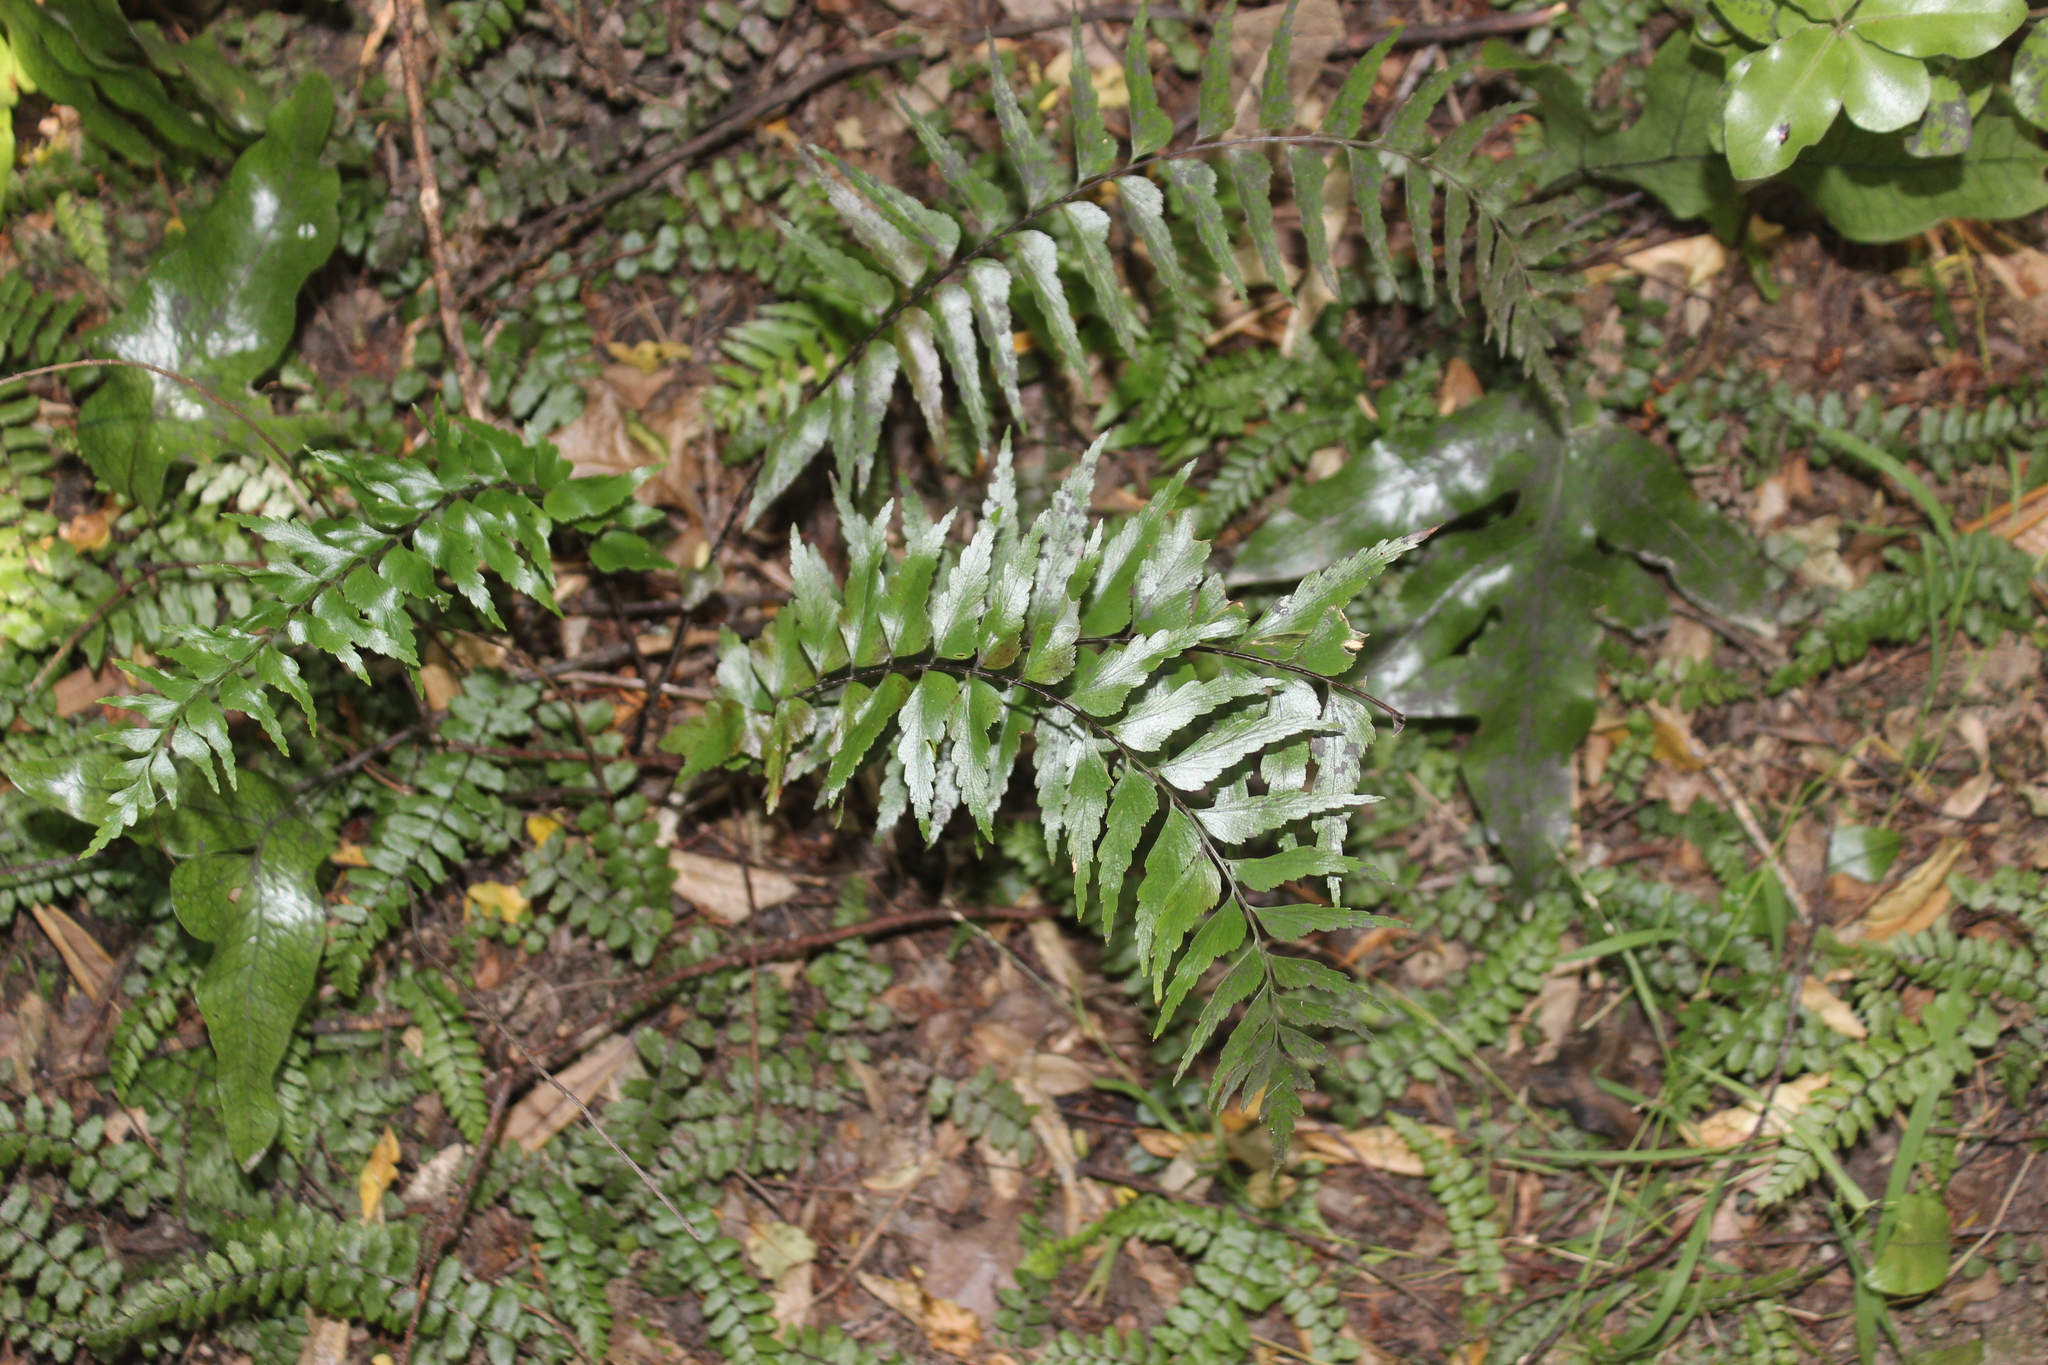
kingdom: Plantae
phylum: Tracheophyta
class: Polypodiopsida
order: Polypodiales
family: Aspleniaceae
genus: Asplenium
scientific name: Asplenium polyodon
